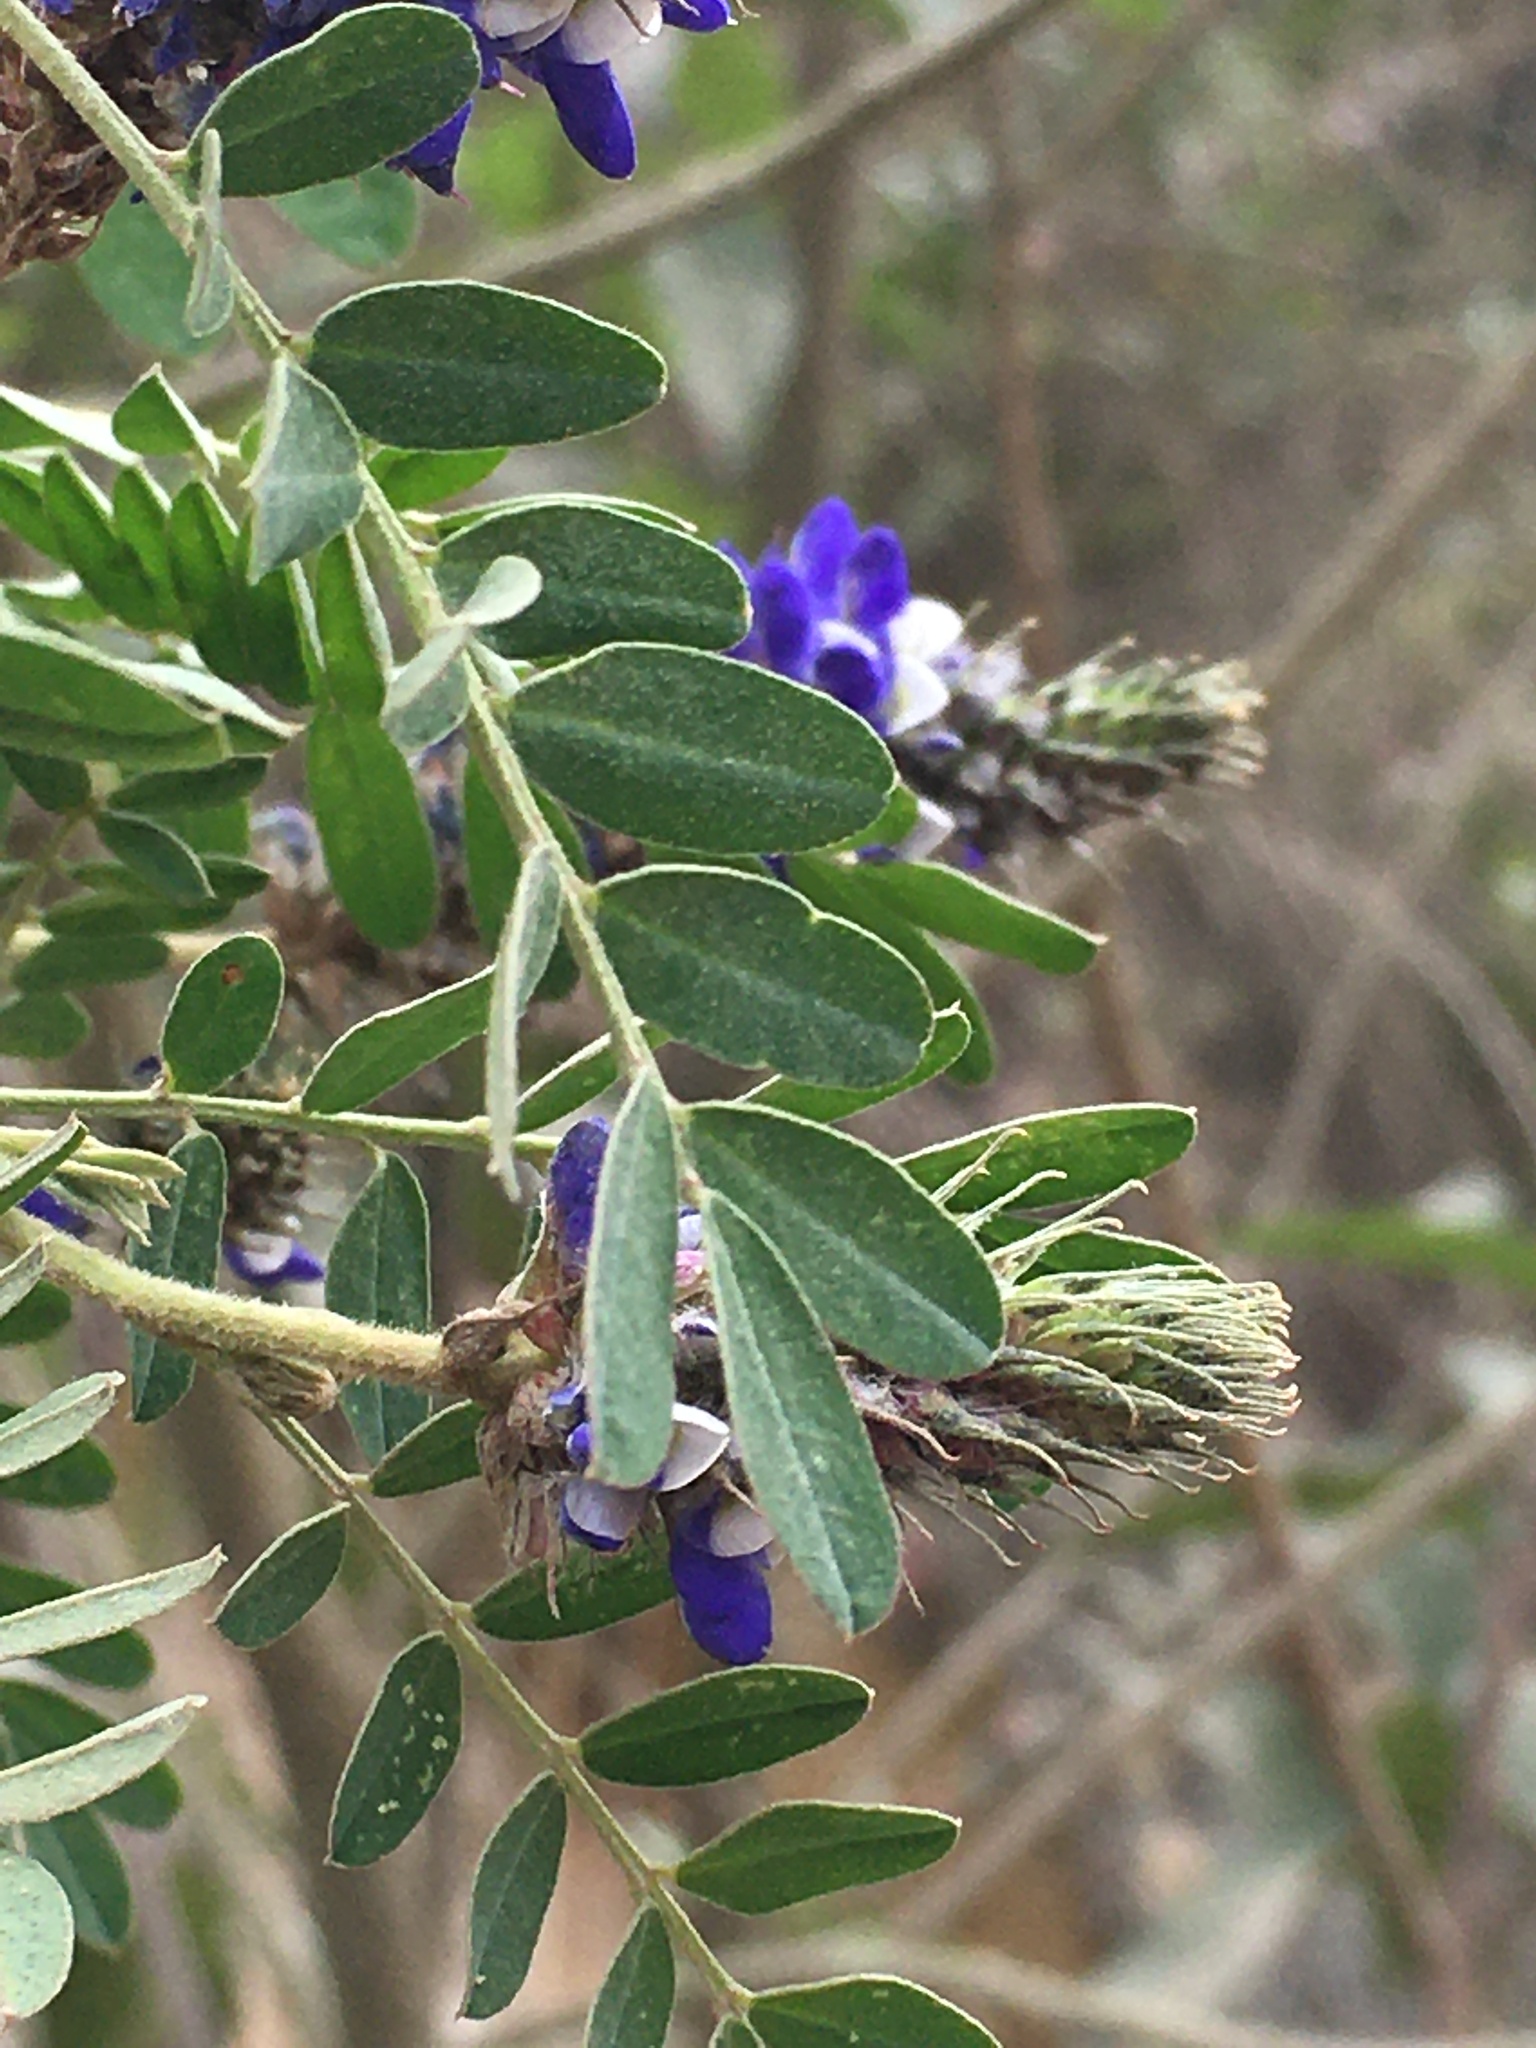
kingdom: Plantae
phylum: Tracheophyta
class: Magnoliopsida
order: Fabales
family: Fabaceae
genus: Dalea
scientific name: Dalea coerulea
